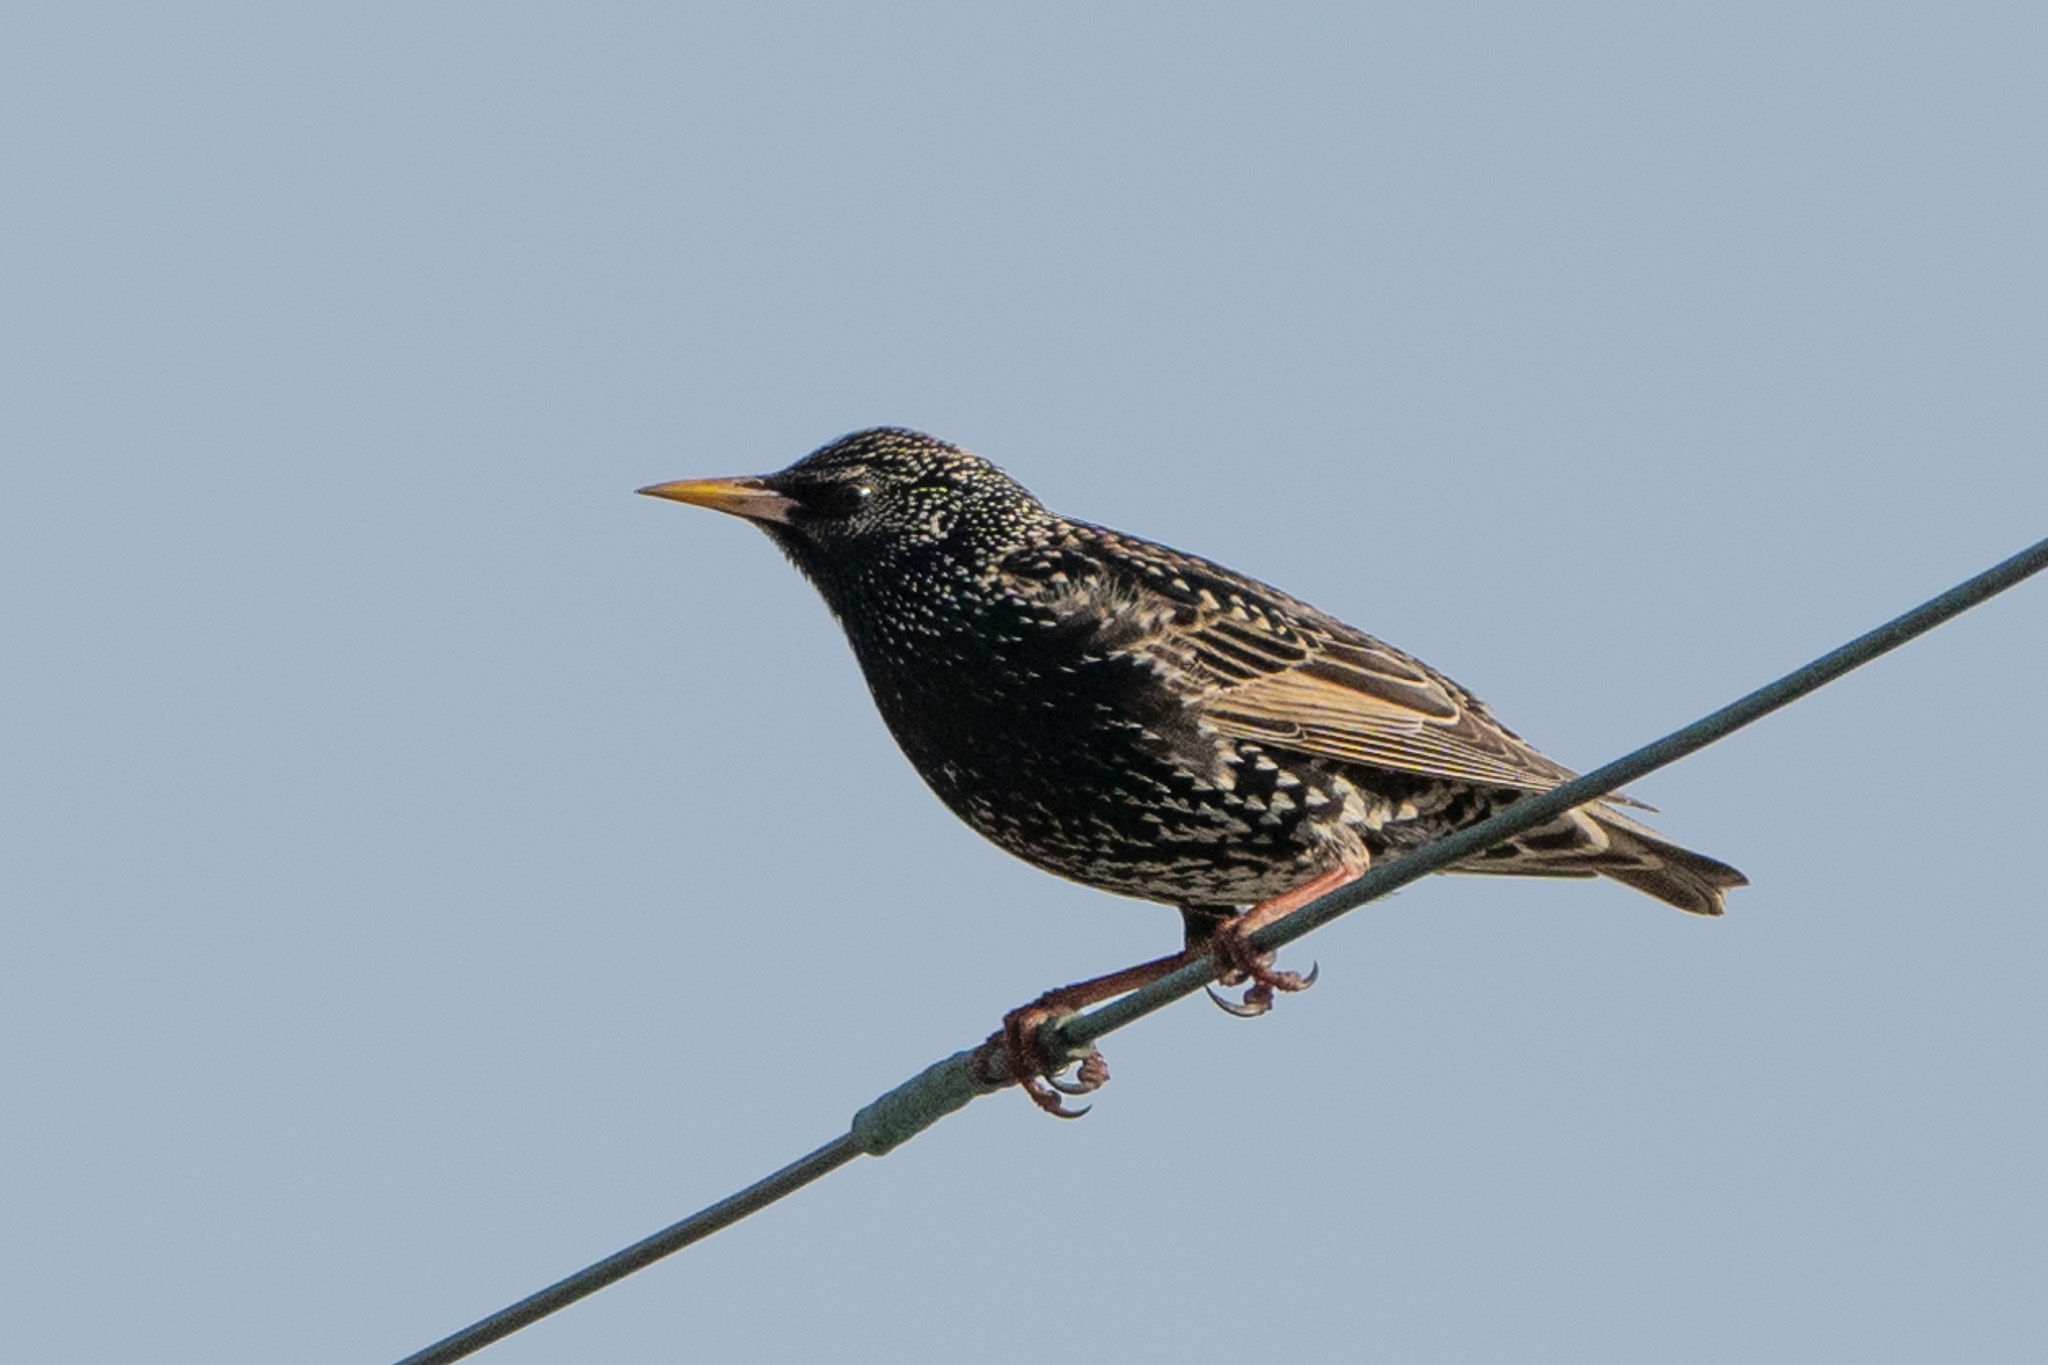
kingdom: Animalia
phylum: Chordata
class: Aves
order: Passeriformes
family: Sturnidae
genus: Sturnus
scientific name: Sturnus vulgaris
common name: Common starling
